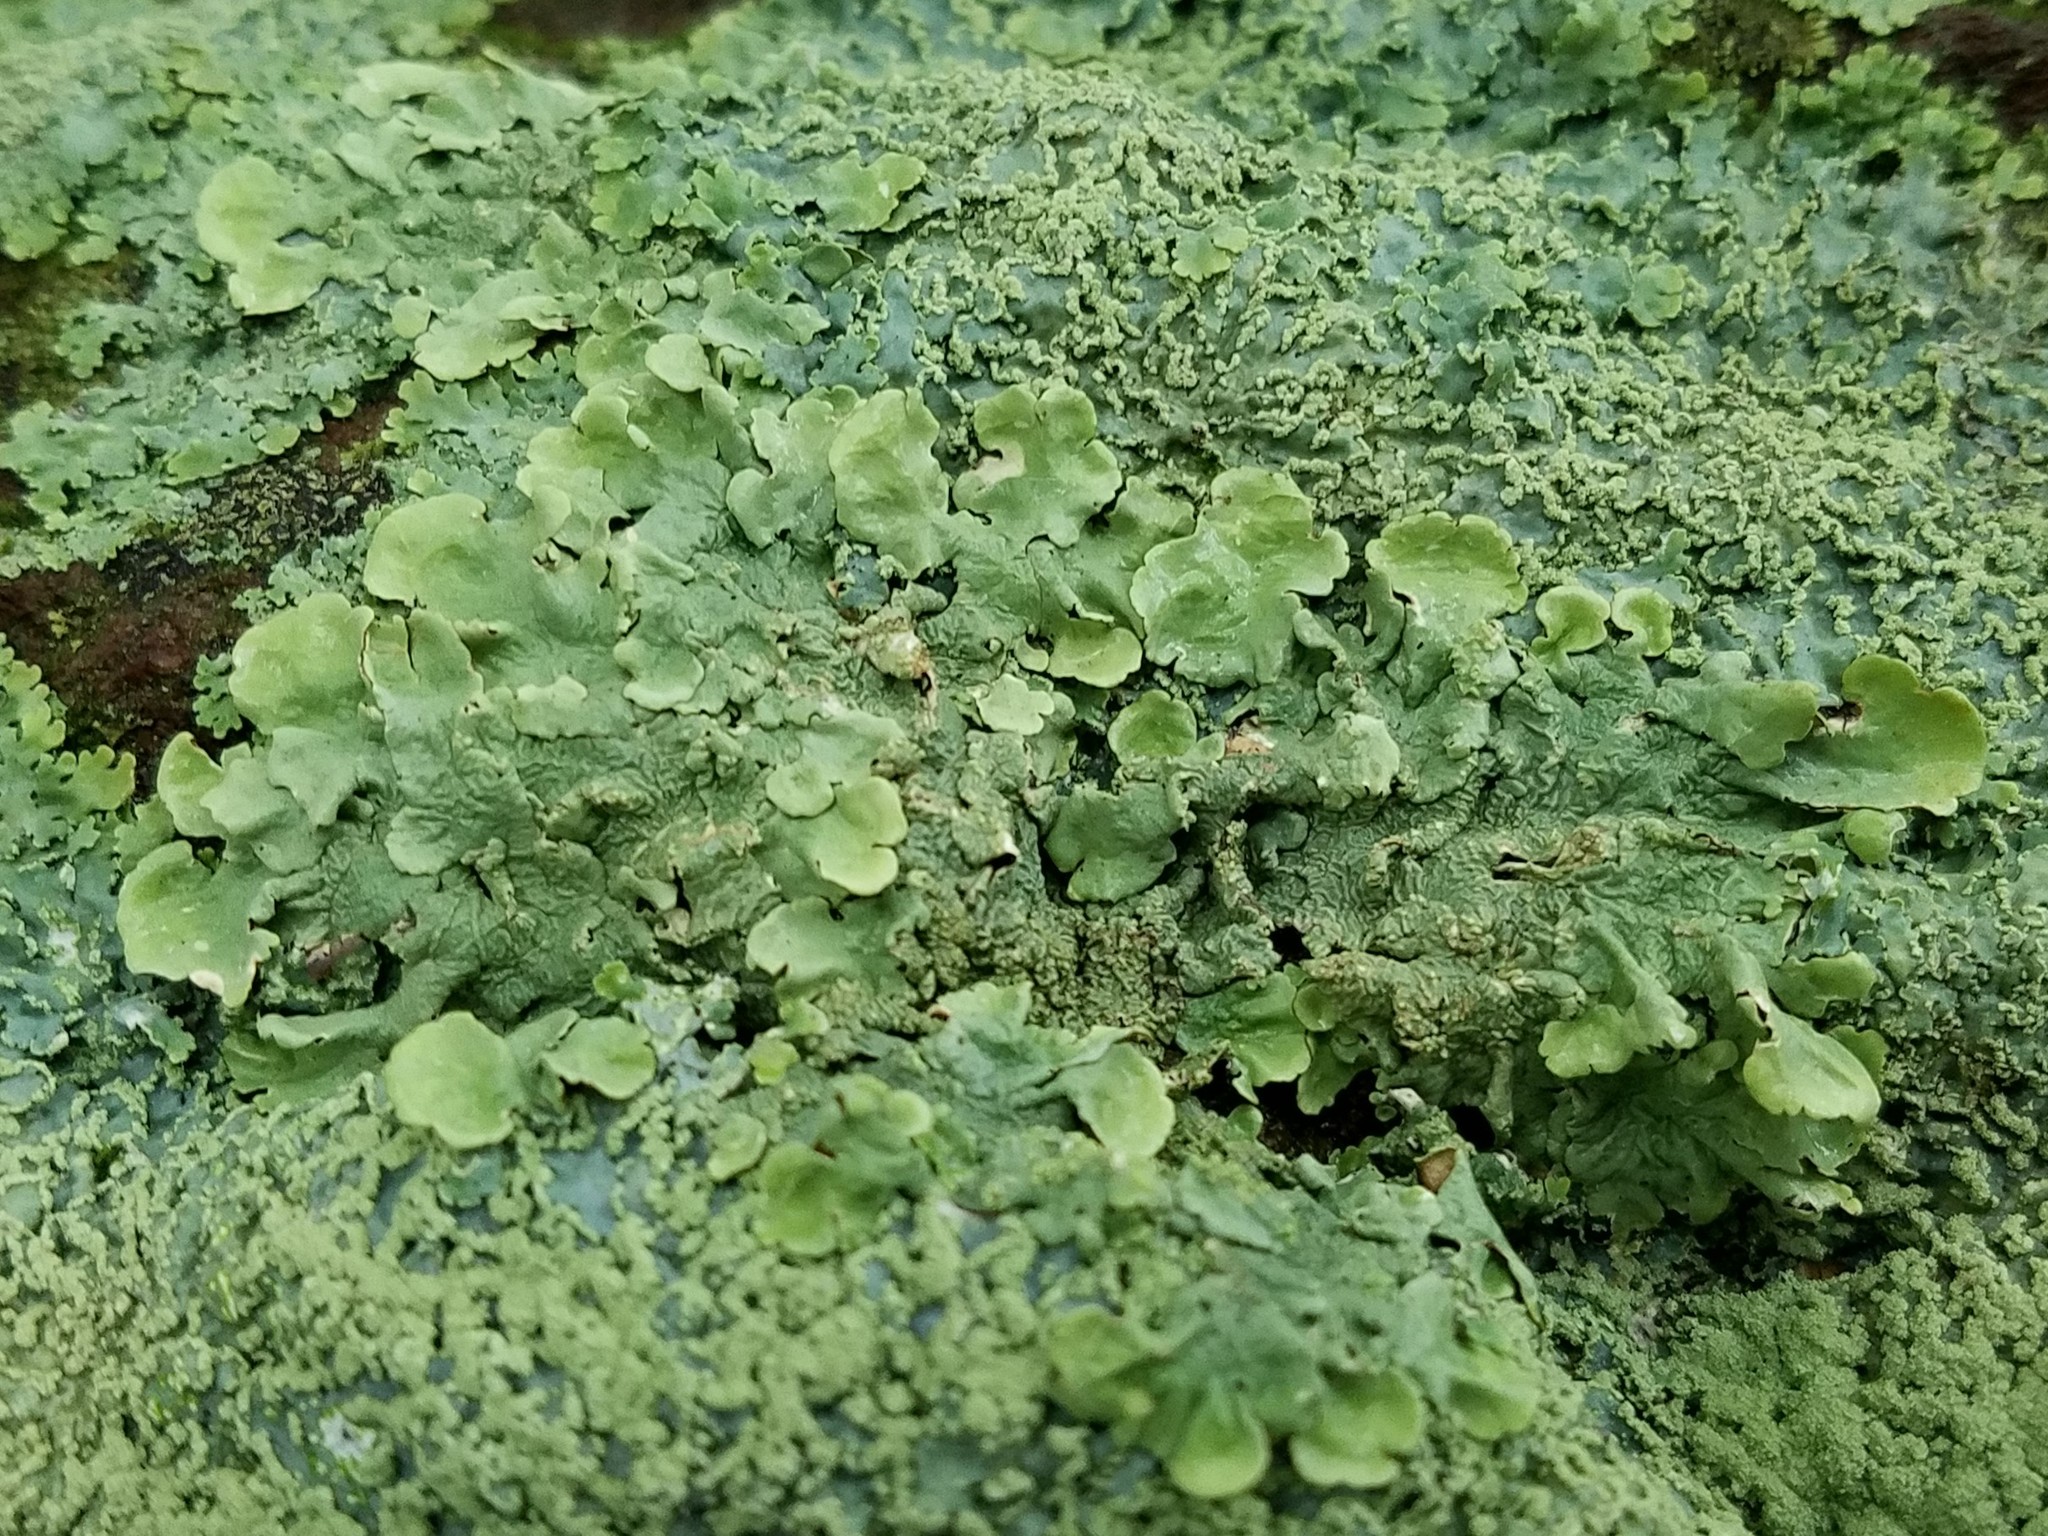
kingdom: Fungi
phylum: Ascomycota
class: Lecanoromycetes
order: Lecanorales
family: Parmeliaceae
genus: Flavoparmelia
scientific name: Flavoparmelia baltimorensis
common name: Rock greenshield
